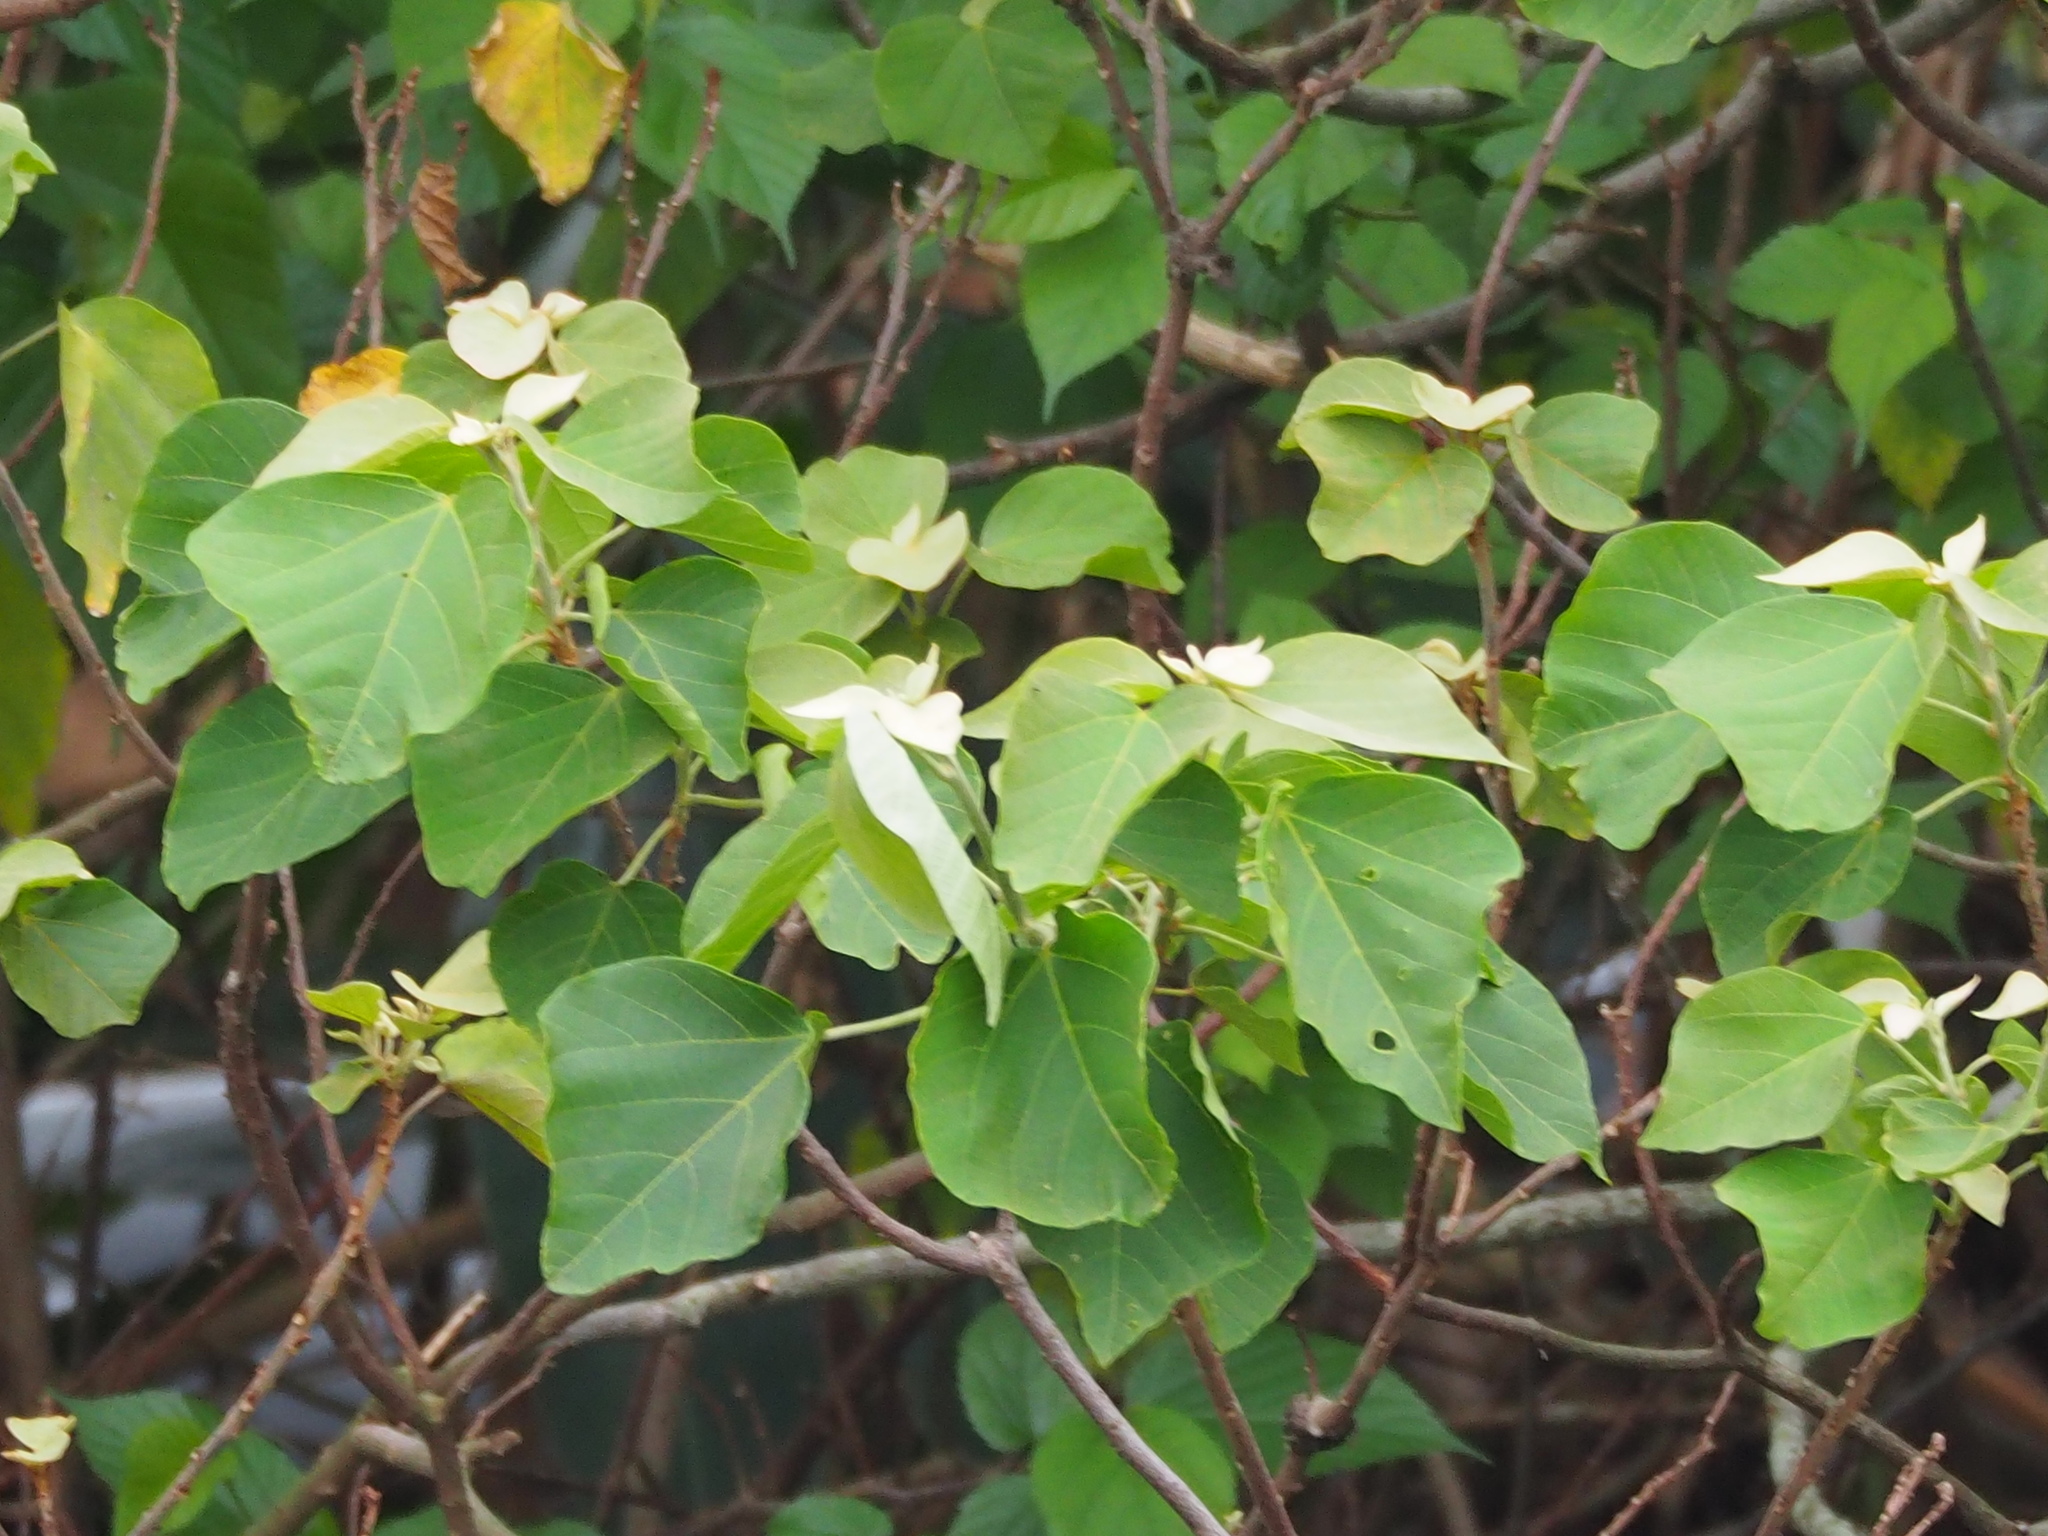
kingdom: Plantae
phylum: Tracheophyta
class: Magnoliopsida
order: Malpighiales
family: Euphorbiaceae
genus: Mallotus
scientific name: Mallotus japonicus
